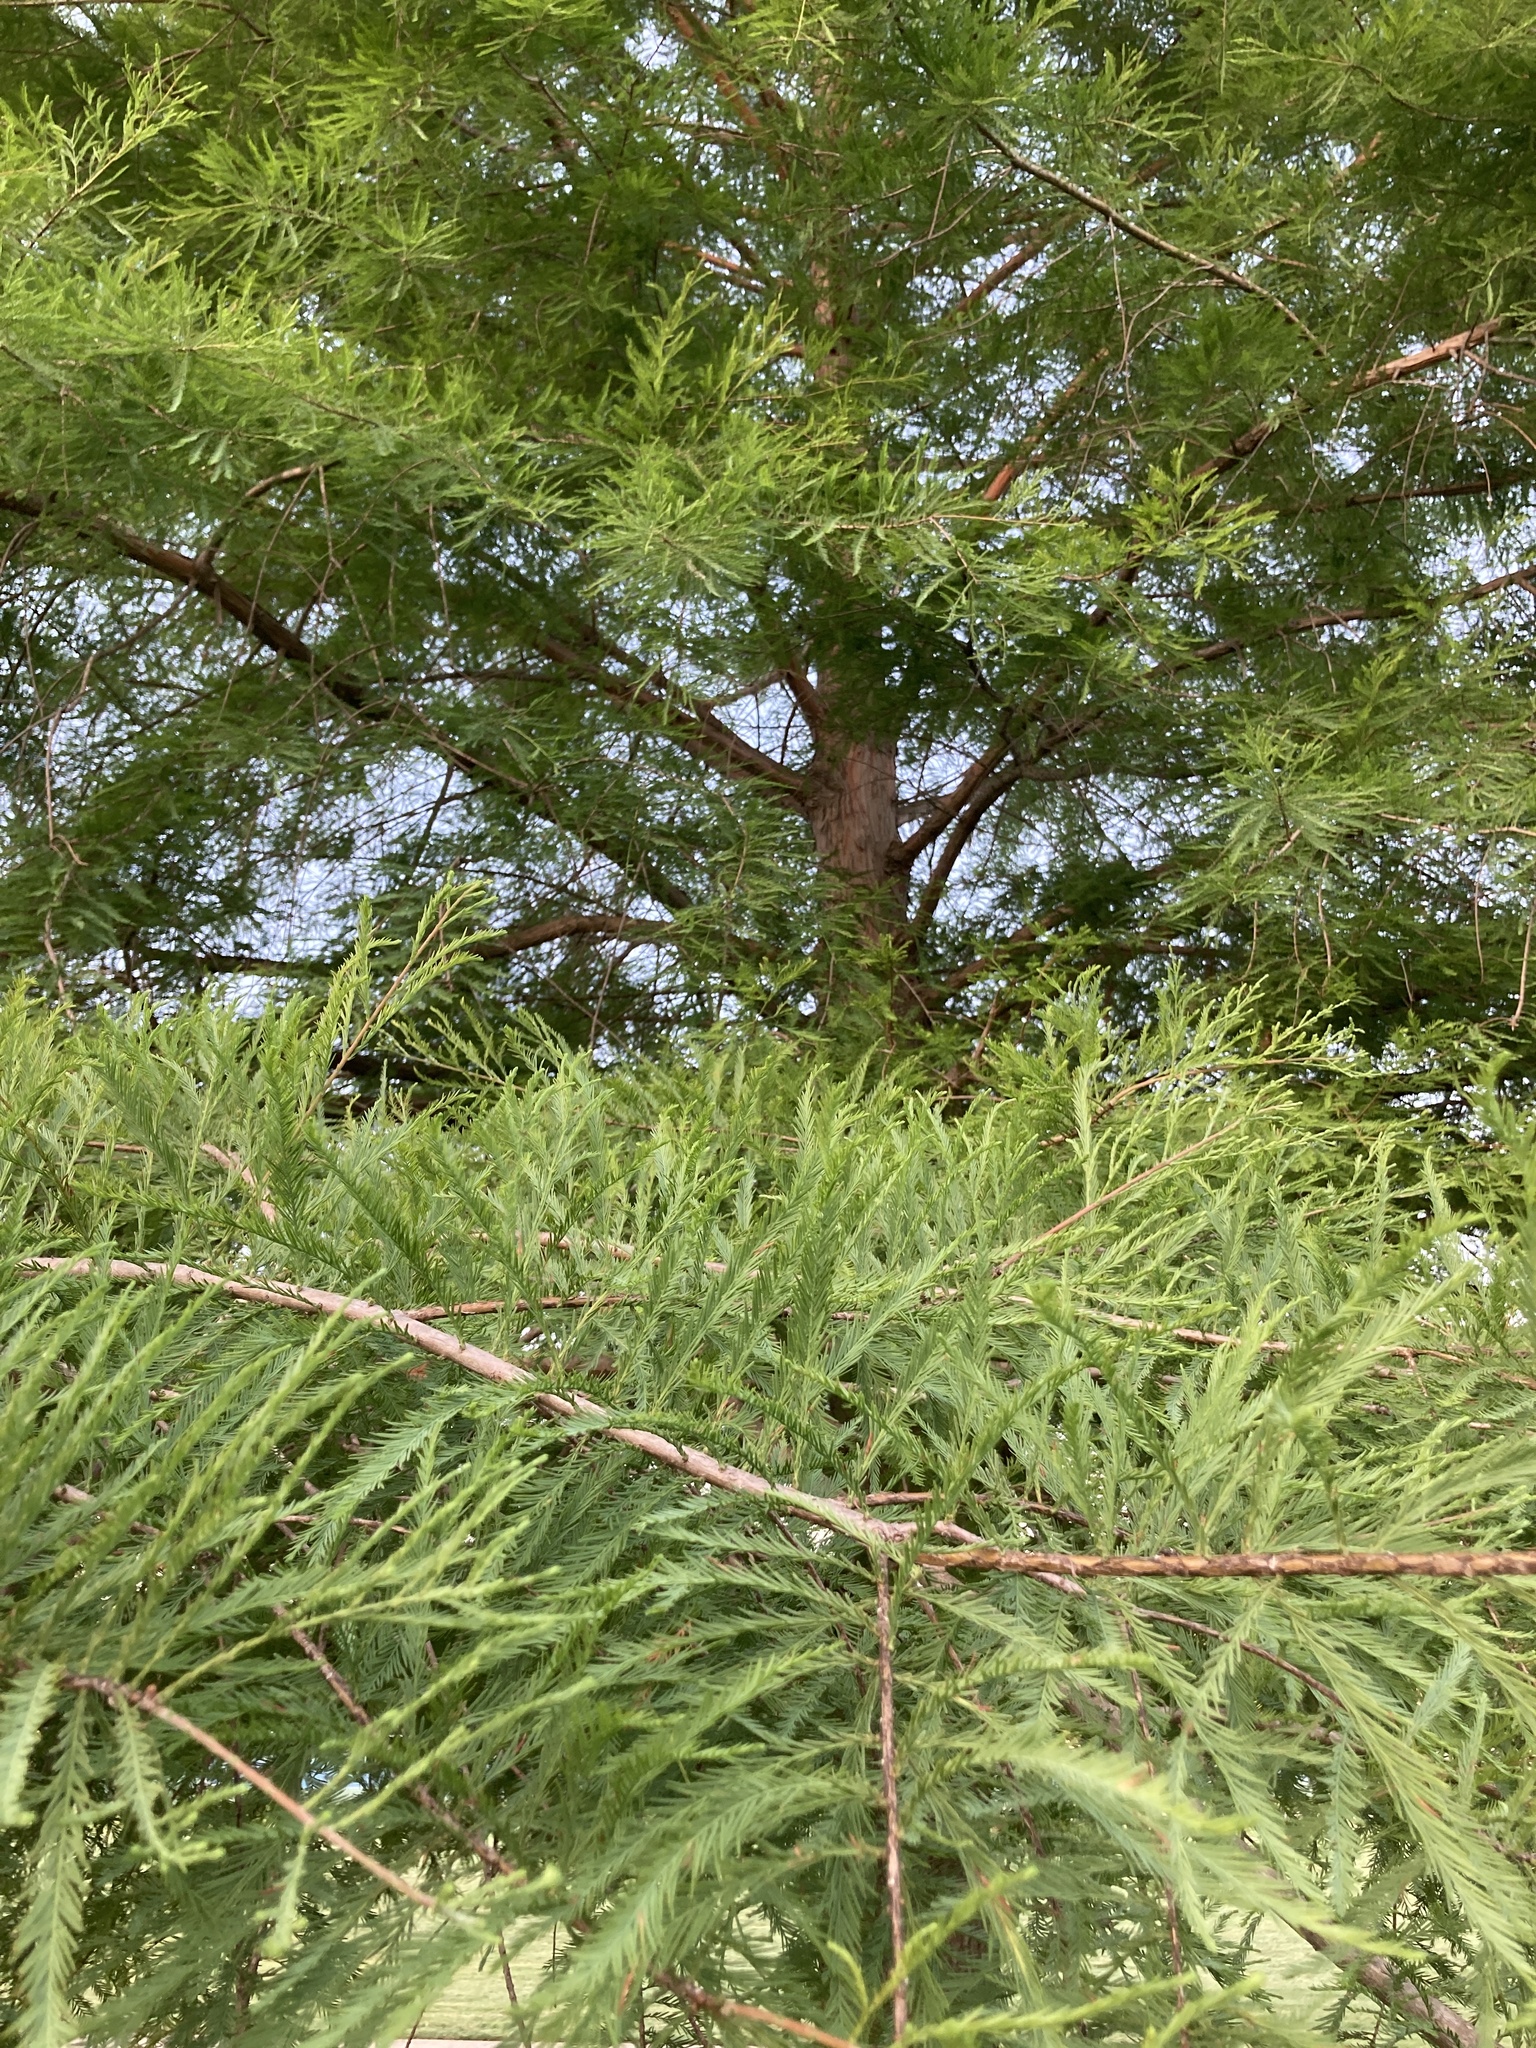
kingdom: Plantae
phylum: Tracheophyta
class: Pinopsida
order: Pinales
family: Cupressaceae
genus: Taxodium
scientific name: Taxodium distichum
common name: Bald cypress
